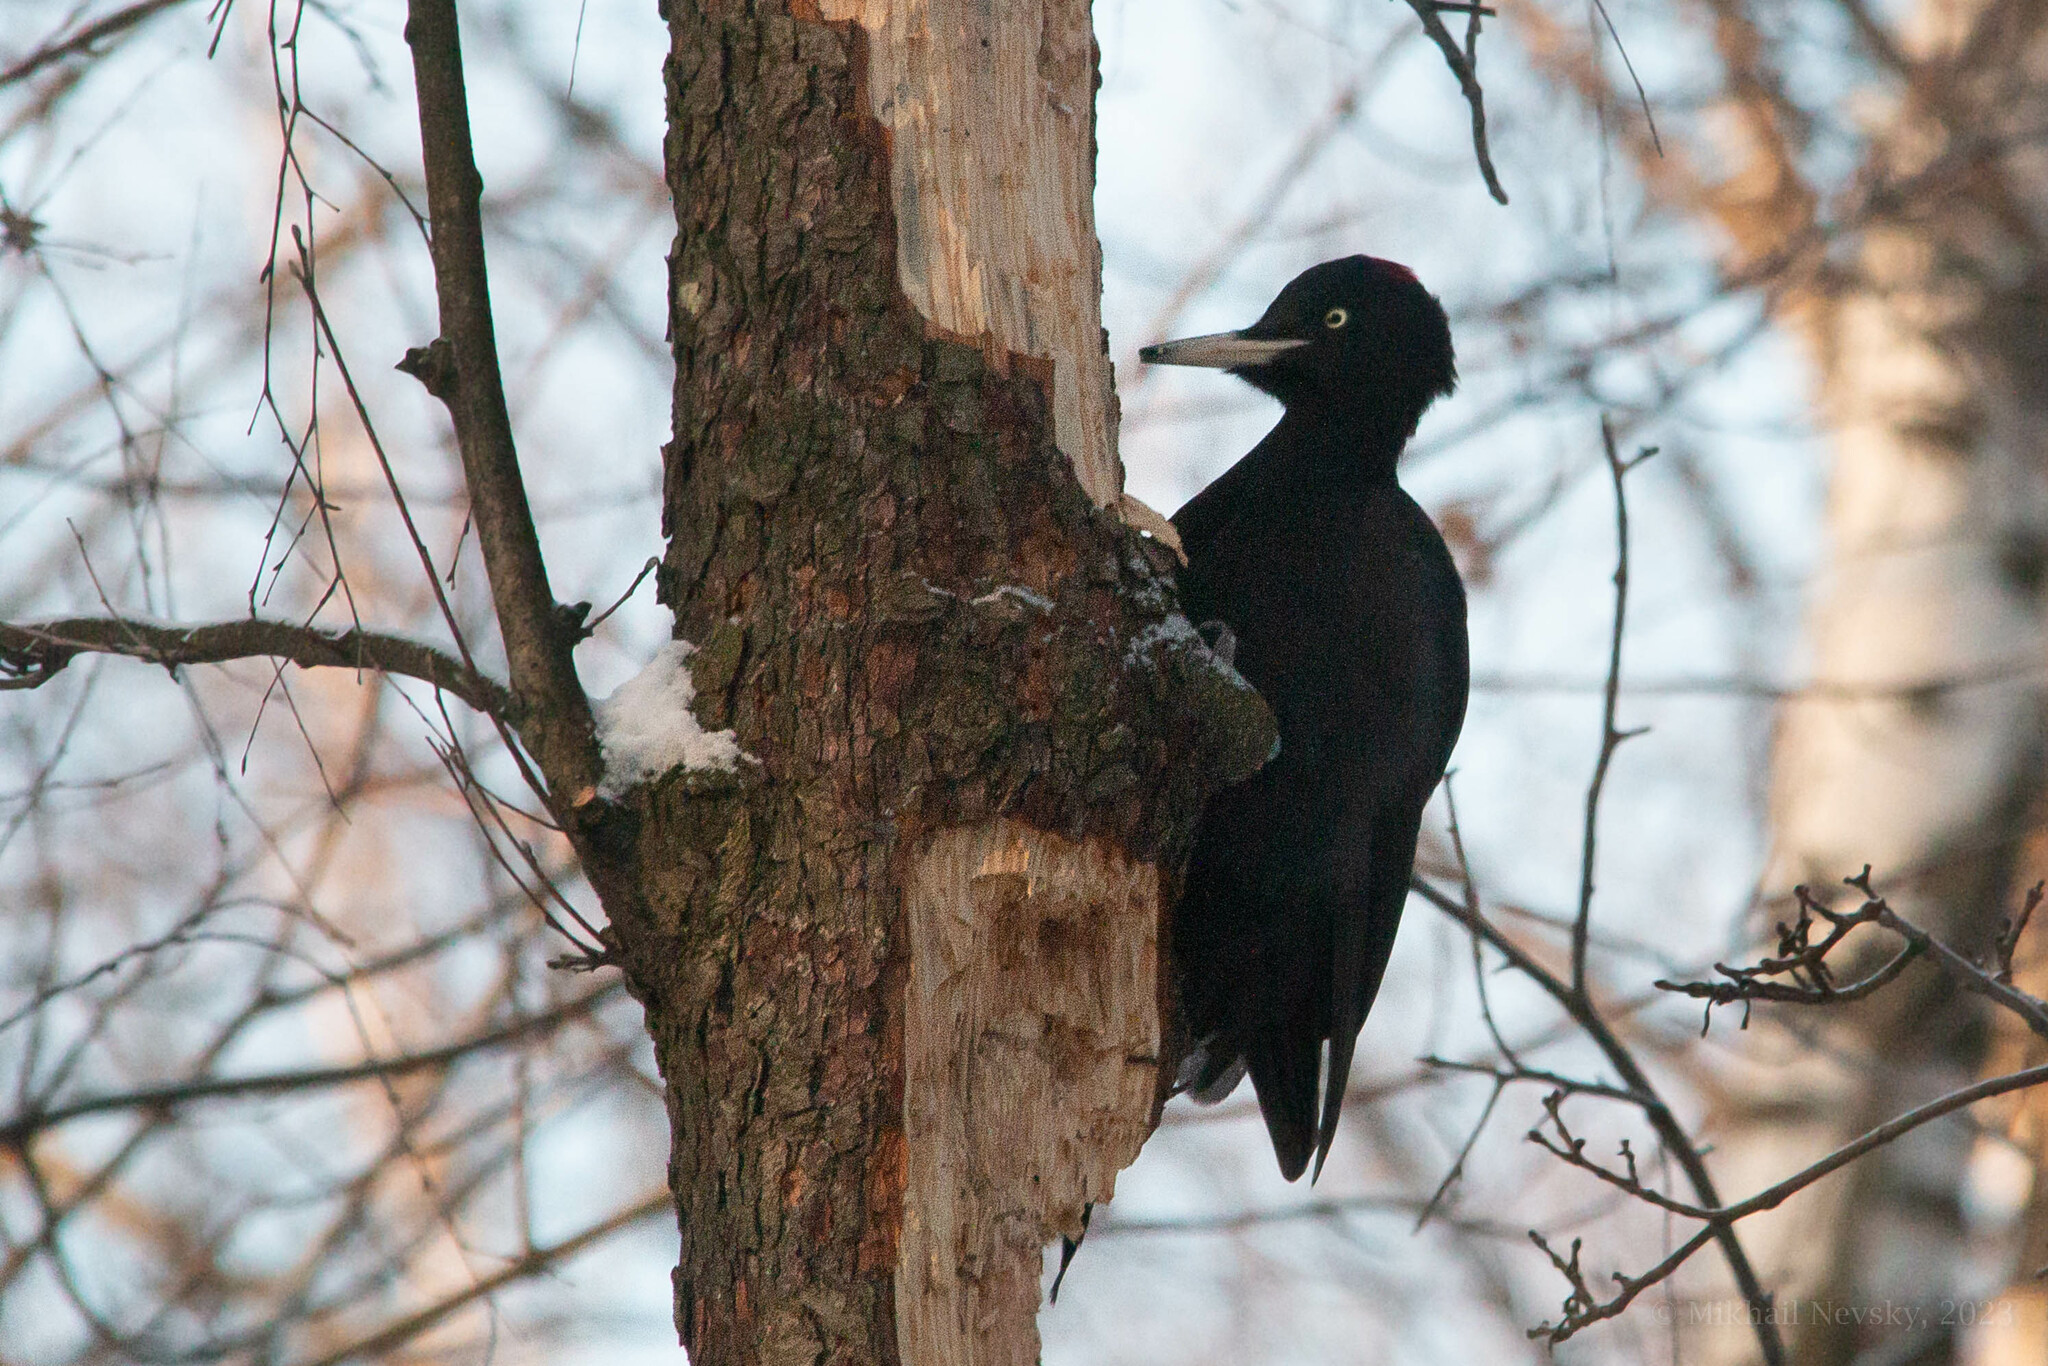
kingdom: Animalia
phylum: Chordata
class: Aves
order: Piciformes
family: Picidae
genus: Dryocopus
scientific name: Dryocopus martius
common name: Black woodpecker
